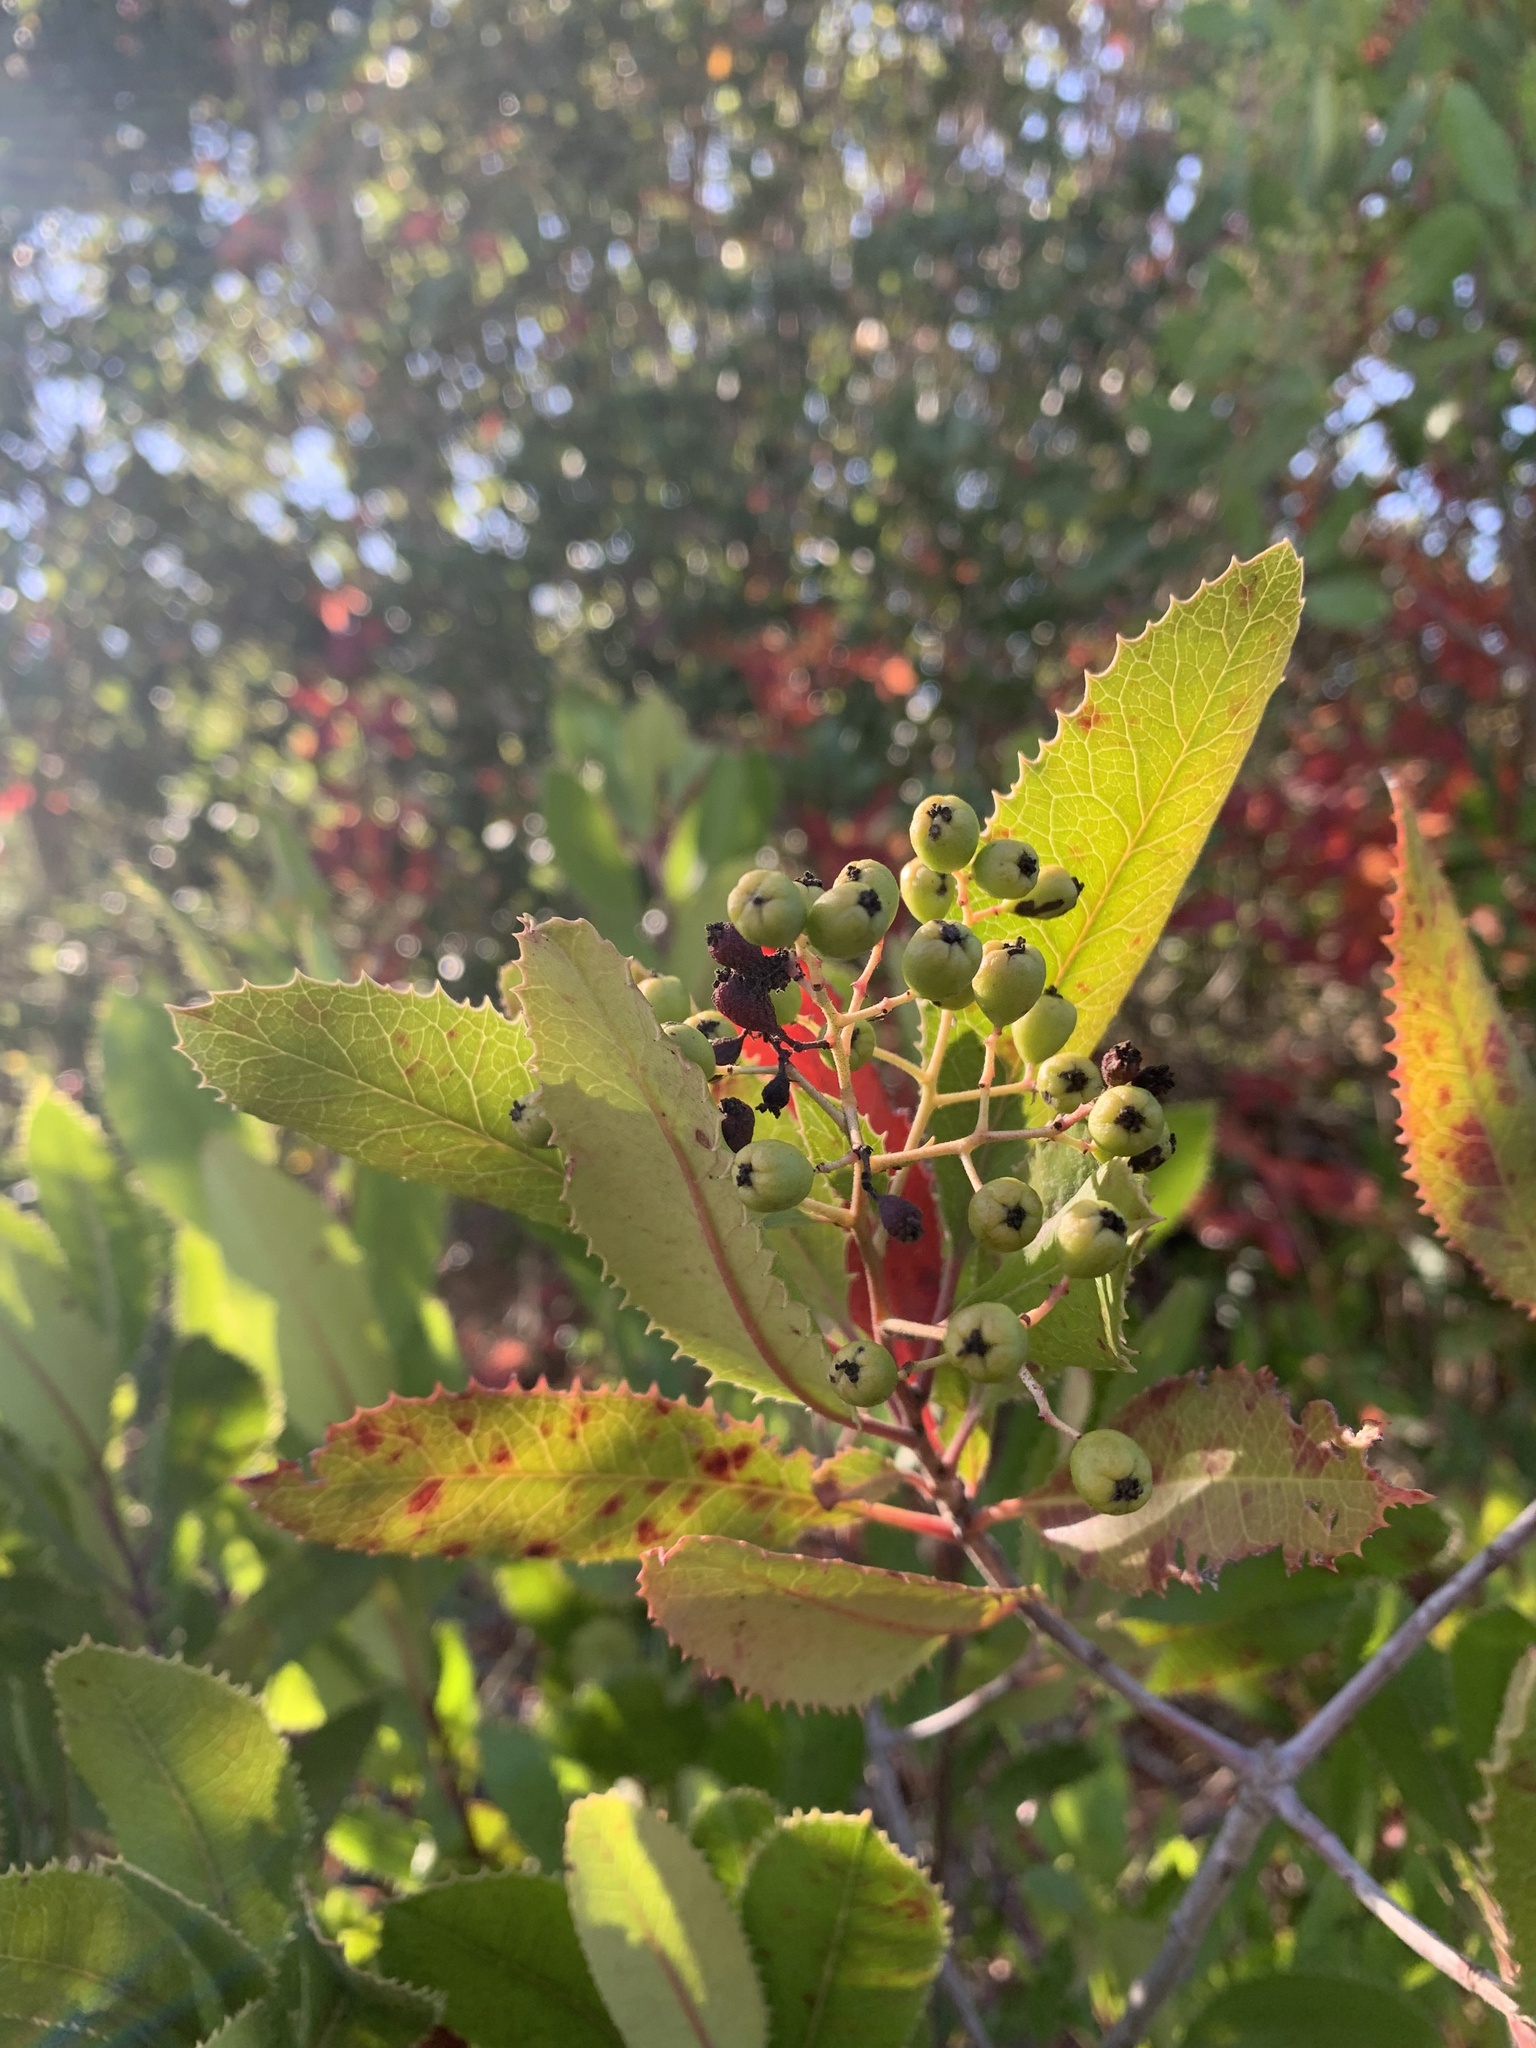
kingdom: Plantae
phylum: Tracheophyta
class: Magnoliopsida
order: Rosales
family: Rosaceae
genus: Heteromeles
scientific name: Heteromeles arbutifolia
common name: California-holly
